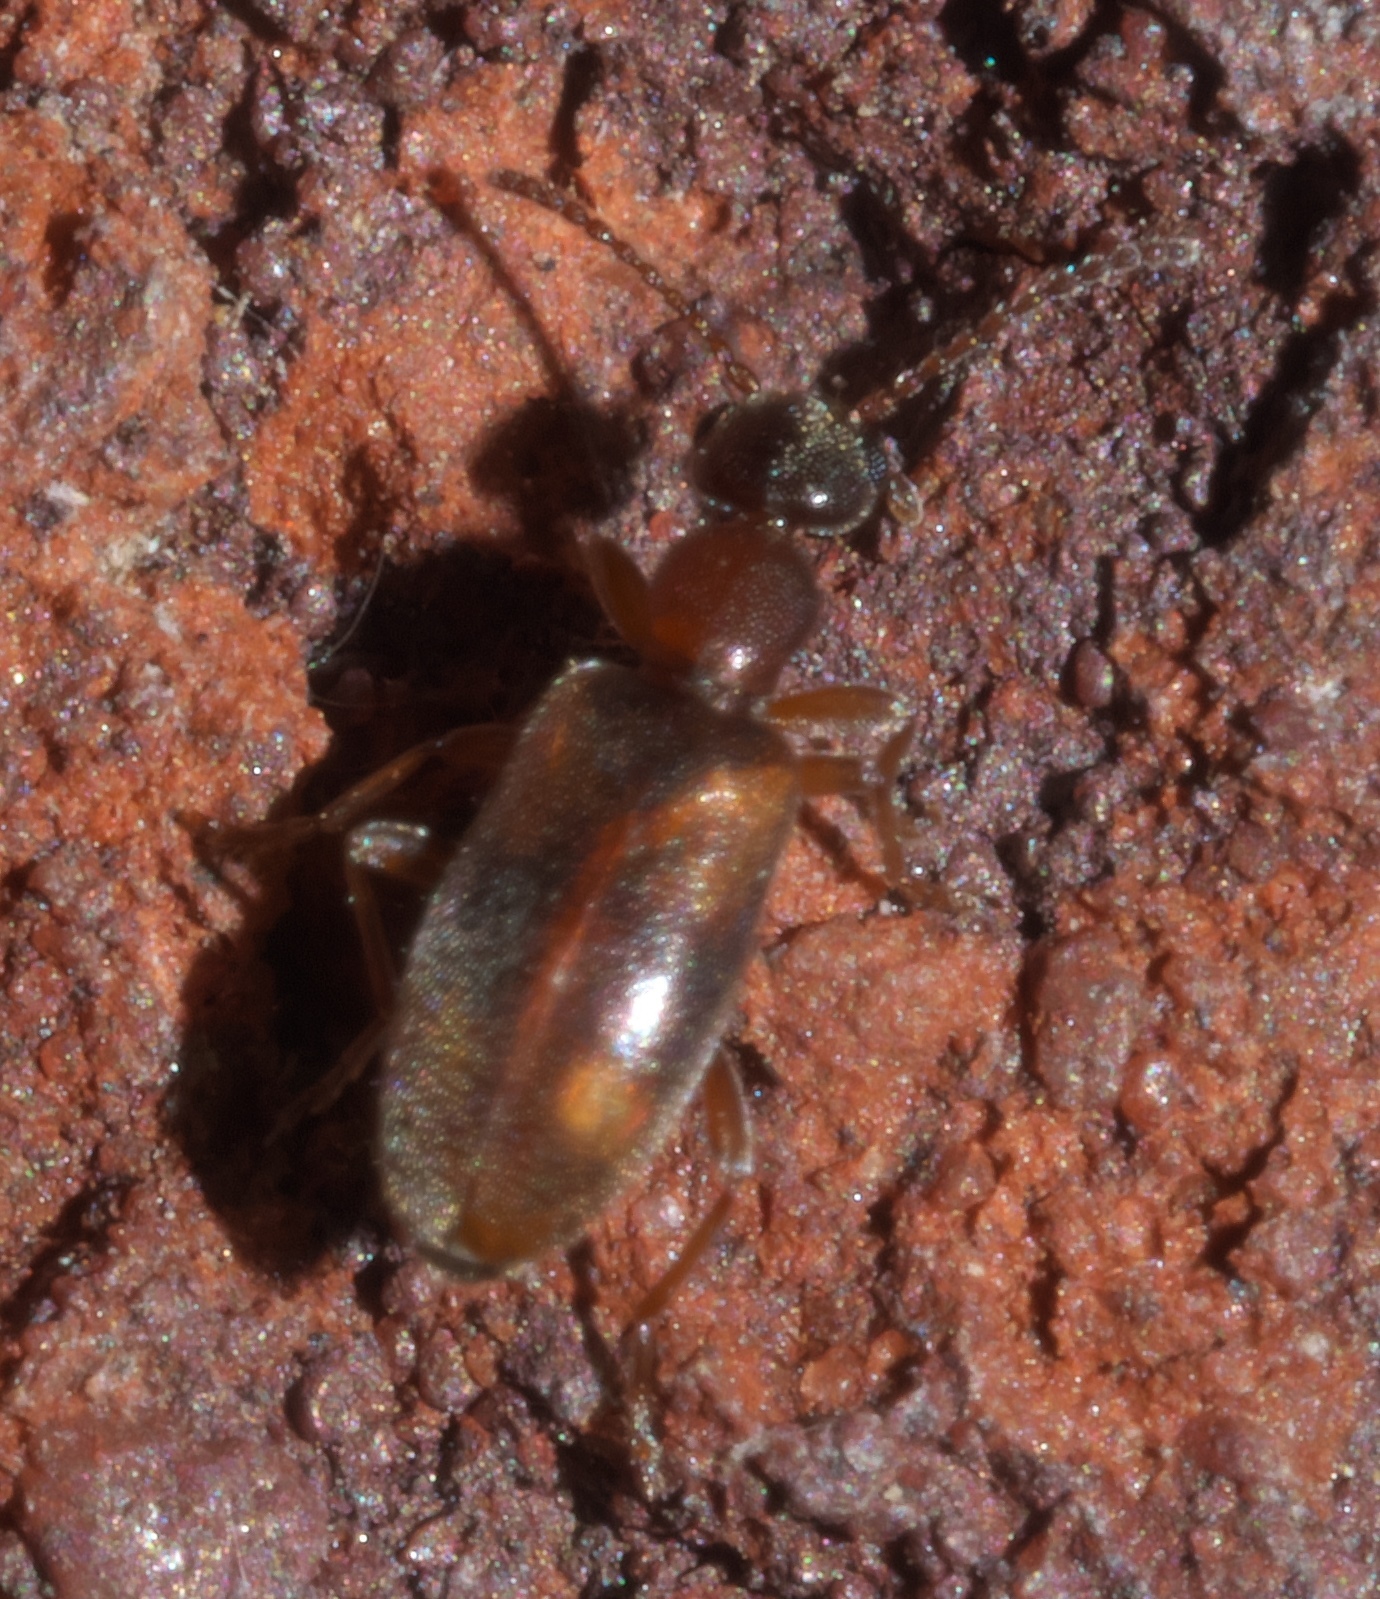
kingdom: Animalia
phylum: Arthropoda
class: Insecta
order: Coleoptera
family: Anthicidae
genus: Anthicus
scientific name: Anthicus cervinus
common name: Cloudy flower beetle
